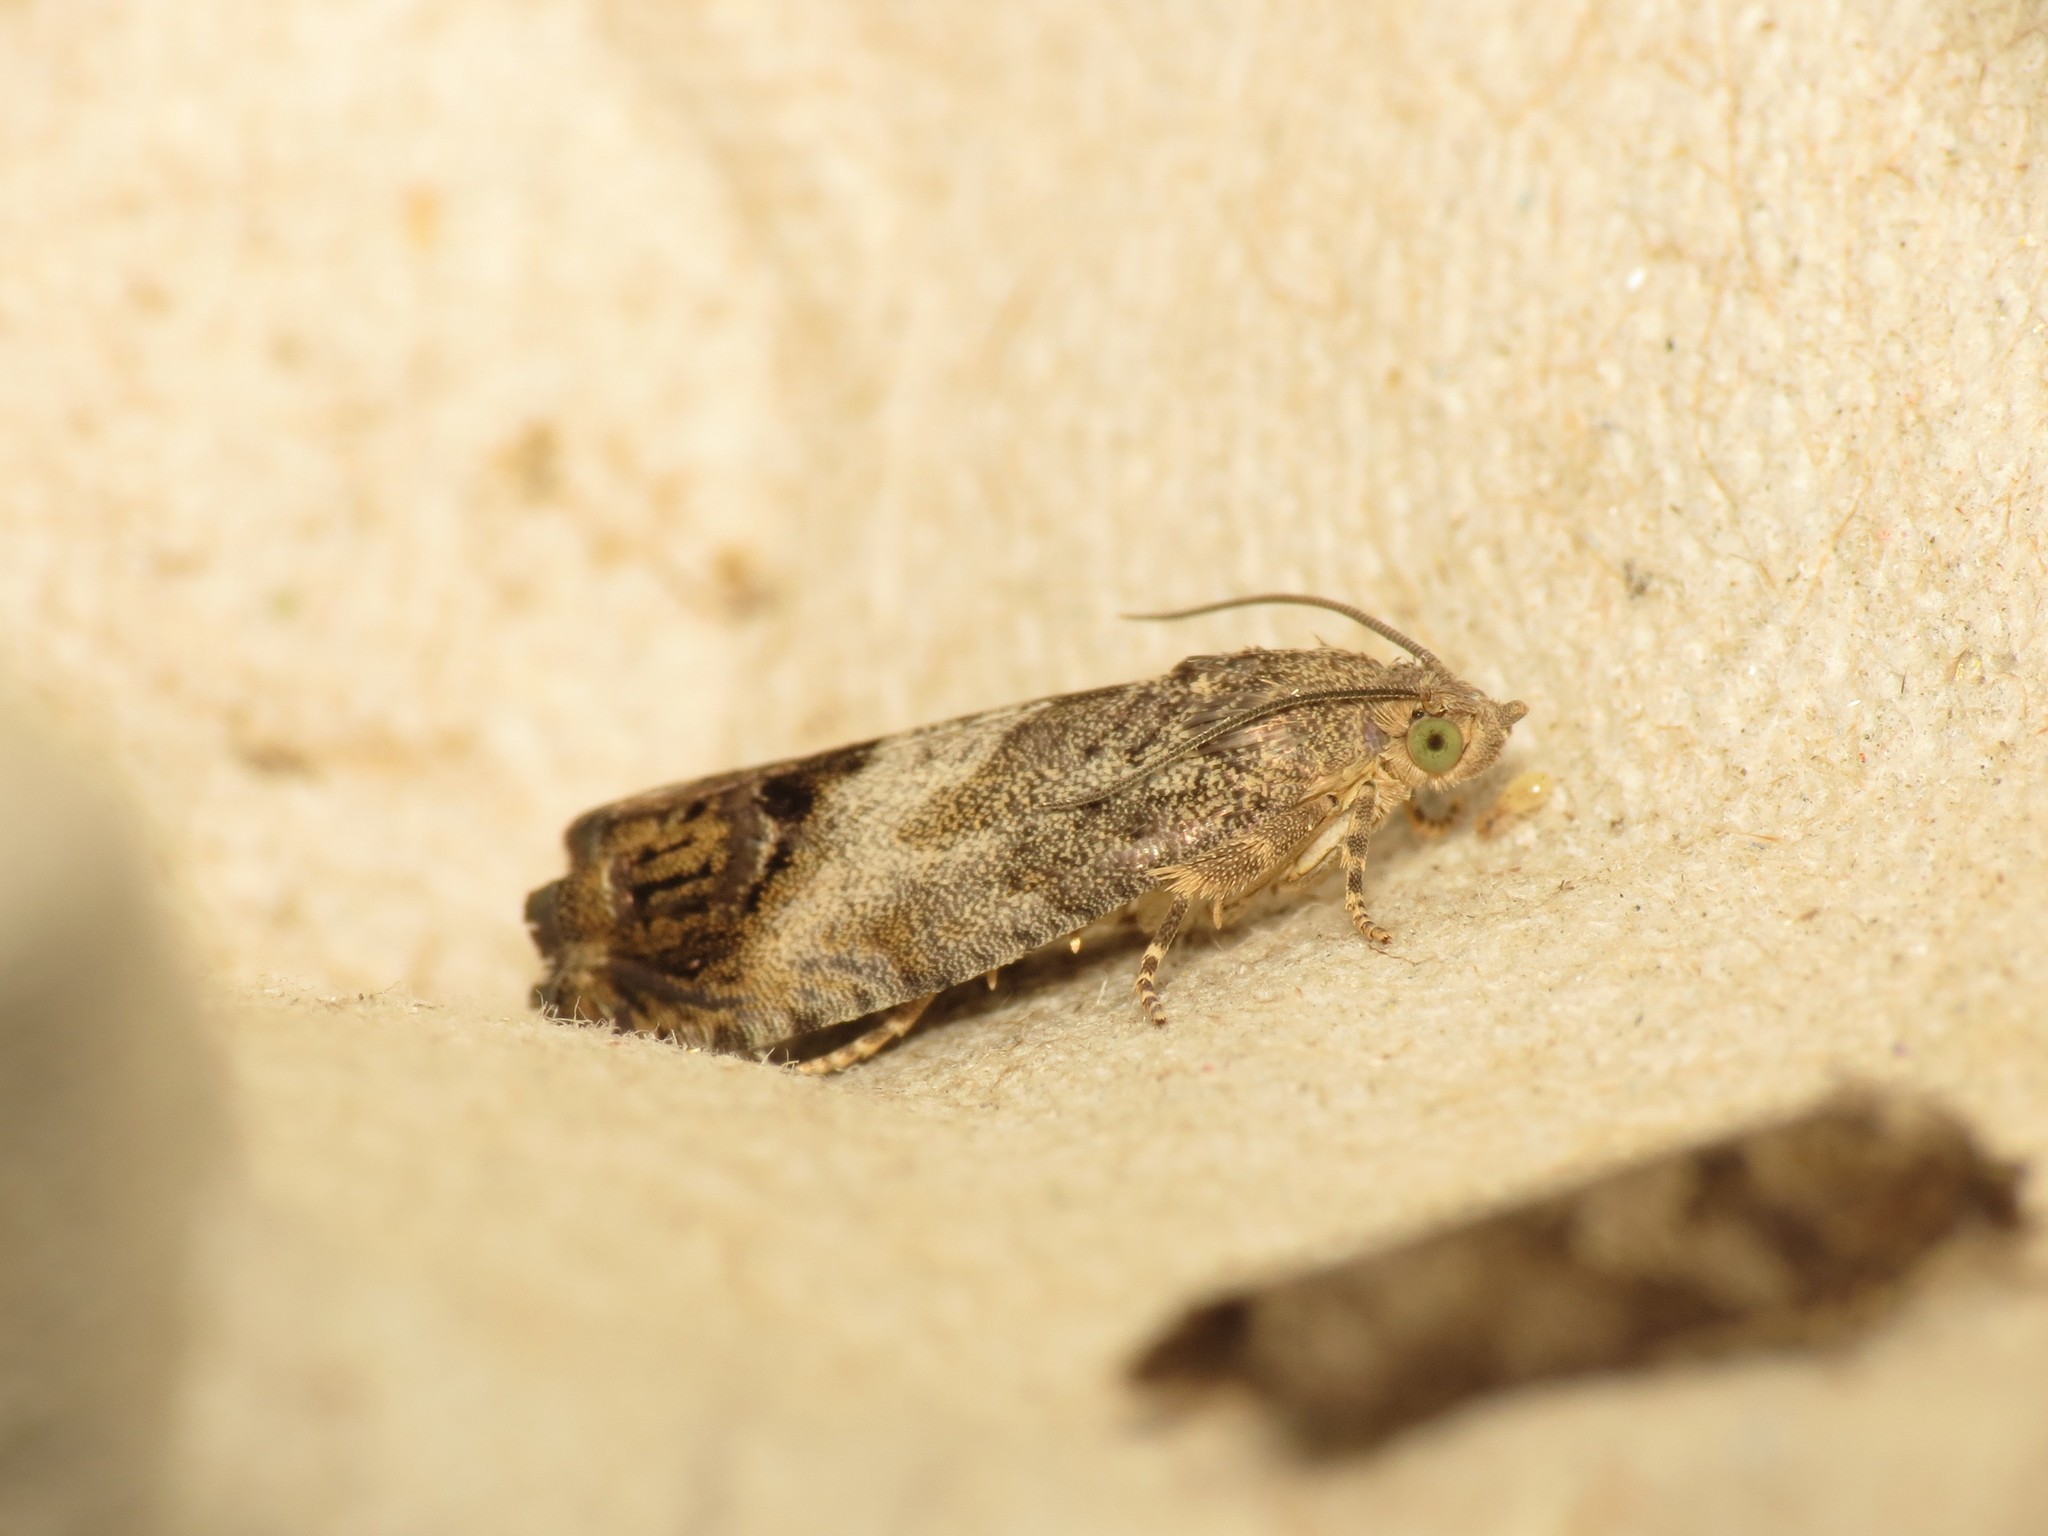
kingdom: Animalia
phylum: Arthropoda
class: Insecta
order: Lepidoptera
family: Tortricidae
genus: Cydia
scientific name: Cydia splendana
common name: De: kastanienwickler, eichenwickler es: oruga de la castaña fr: carpocapse des châtaignes it: cidia o tortrice tardiva delle castagne pt: bichado das castanhas gb: acorn moth, chestnut fruit tortrix
